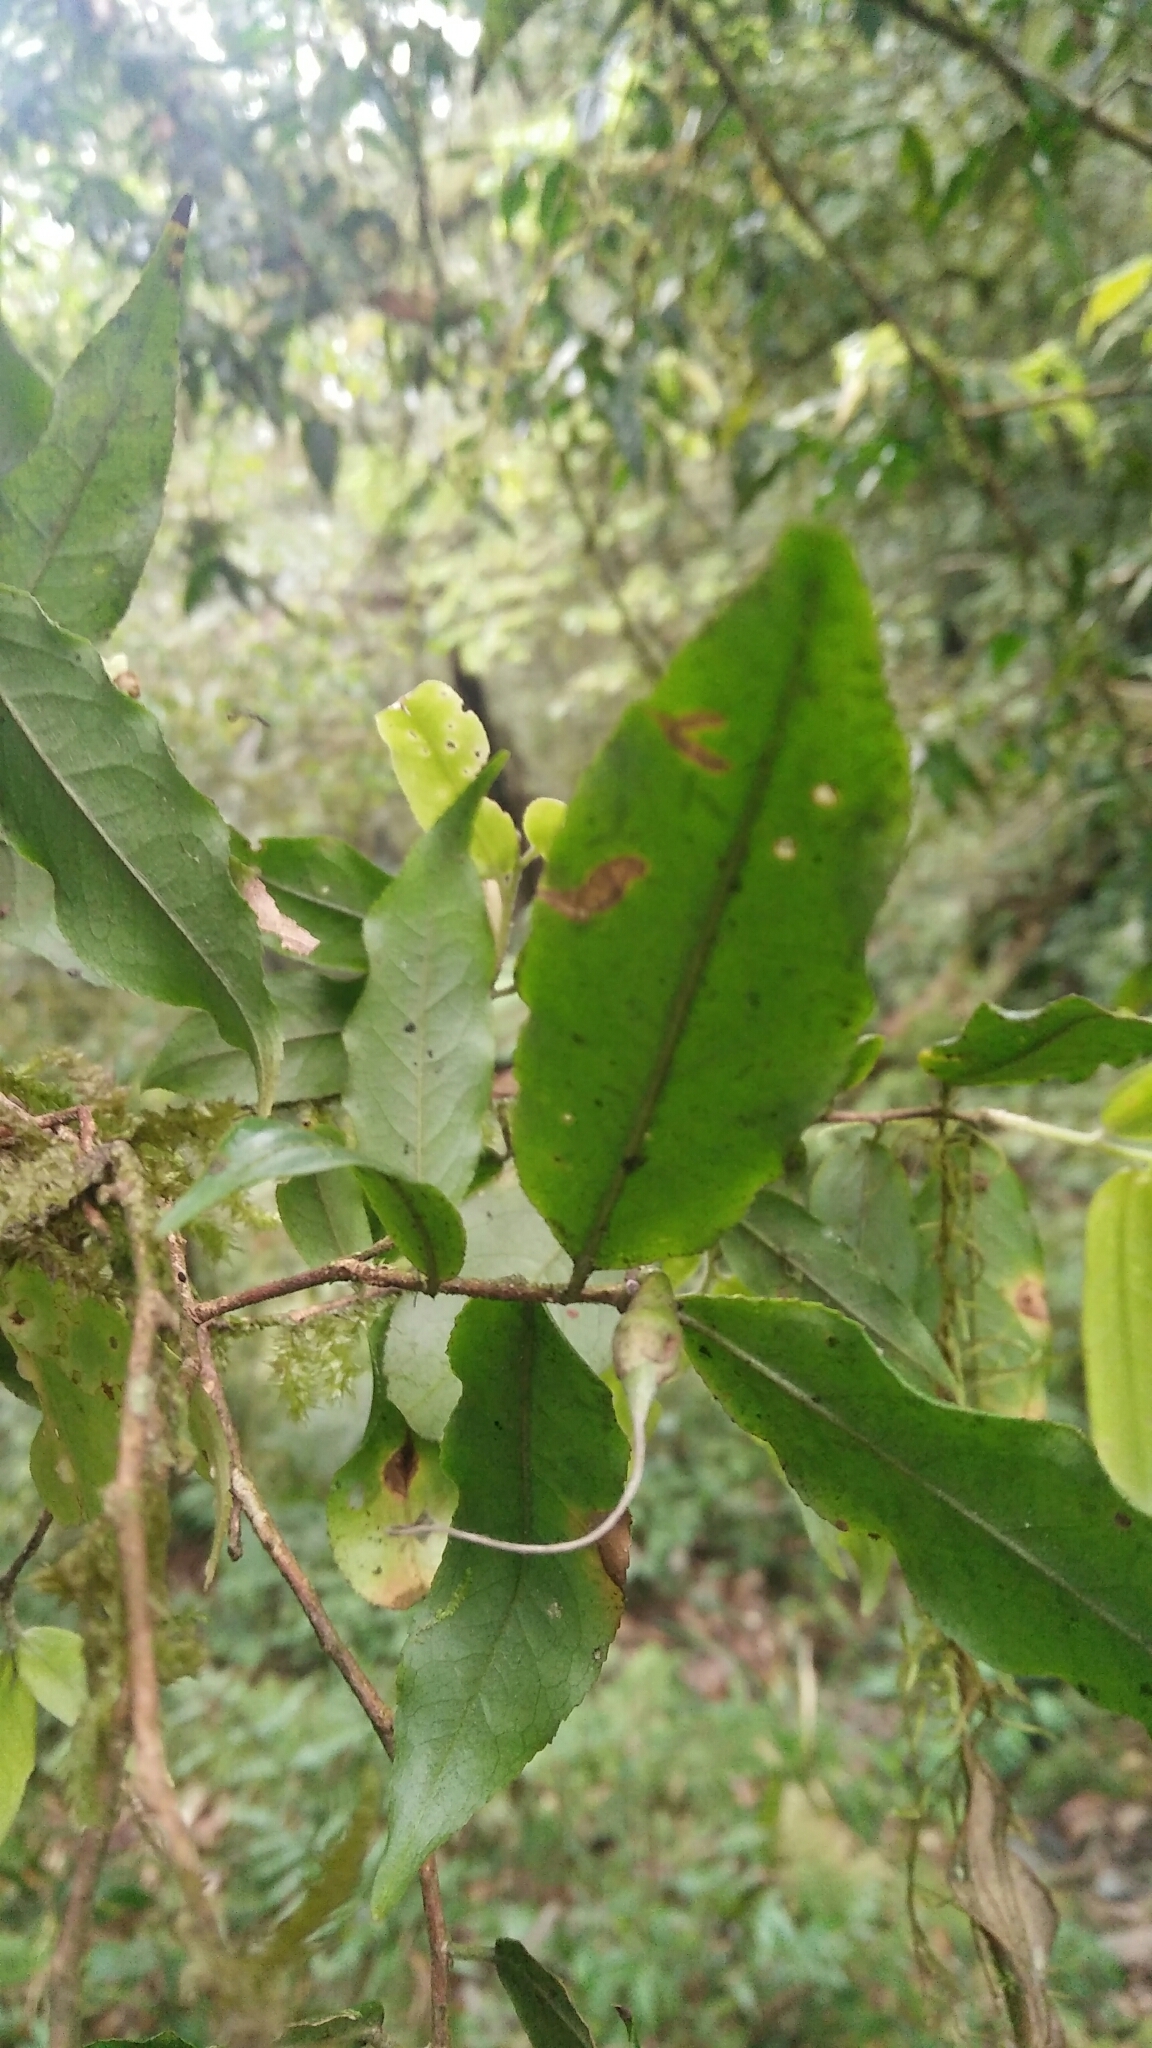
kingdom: Plantae
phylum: Tracheophyta
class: Magnoliopsida
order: Ericales
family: Theaceae
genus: Camellia
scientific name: Camellia caudata
